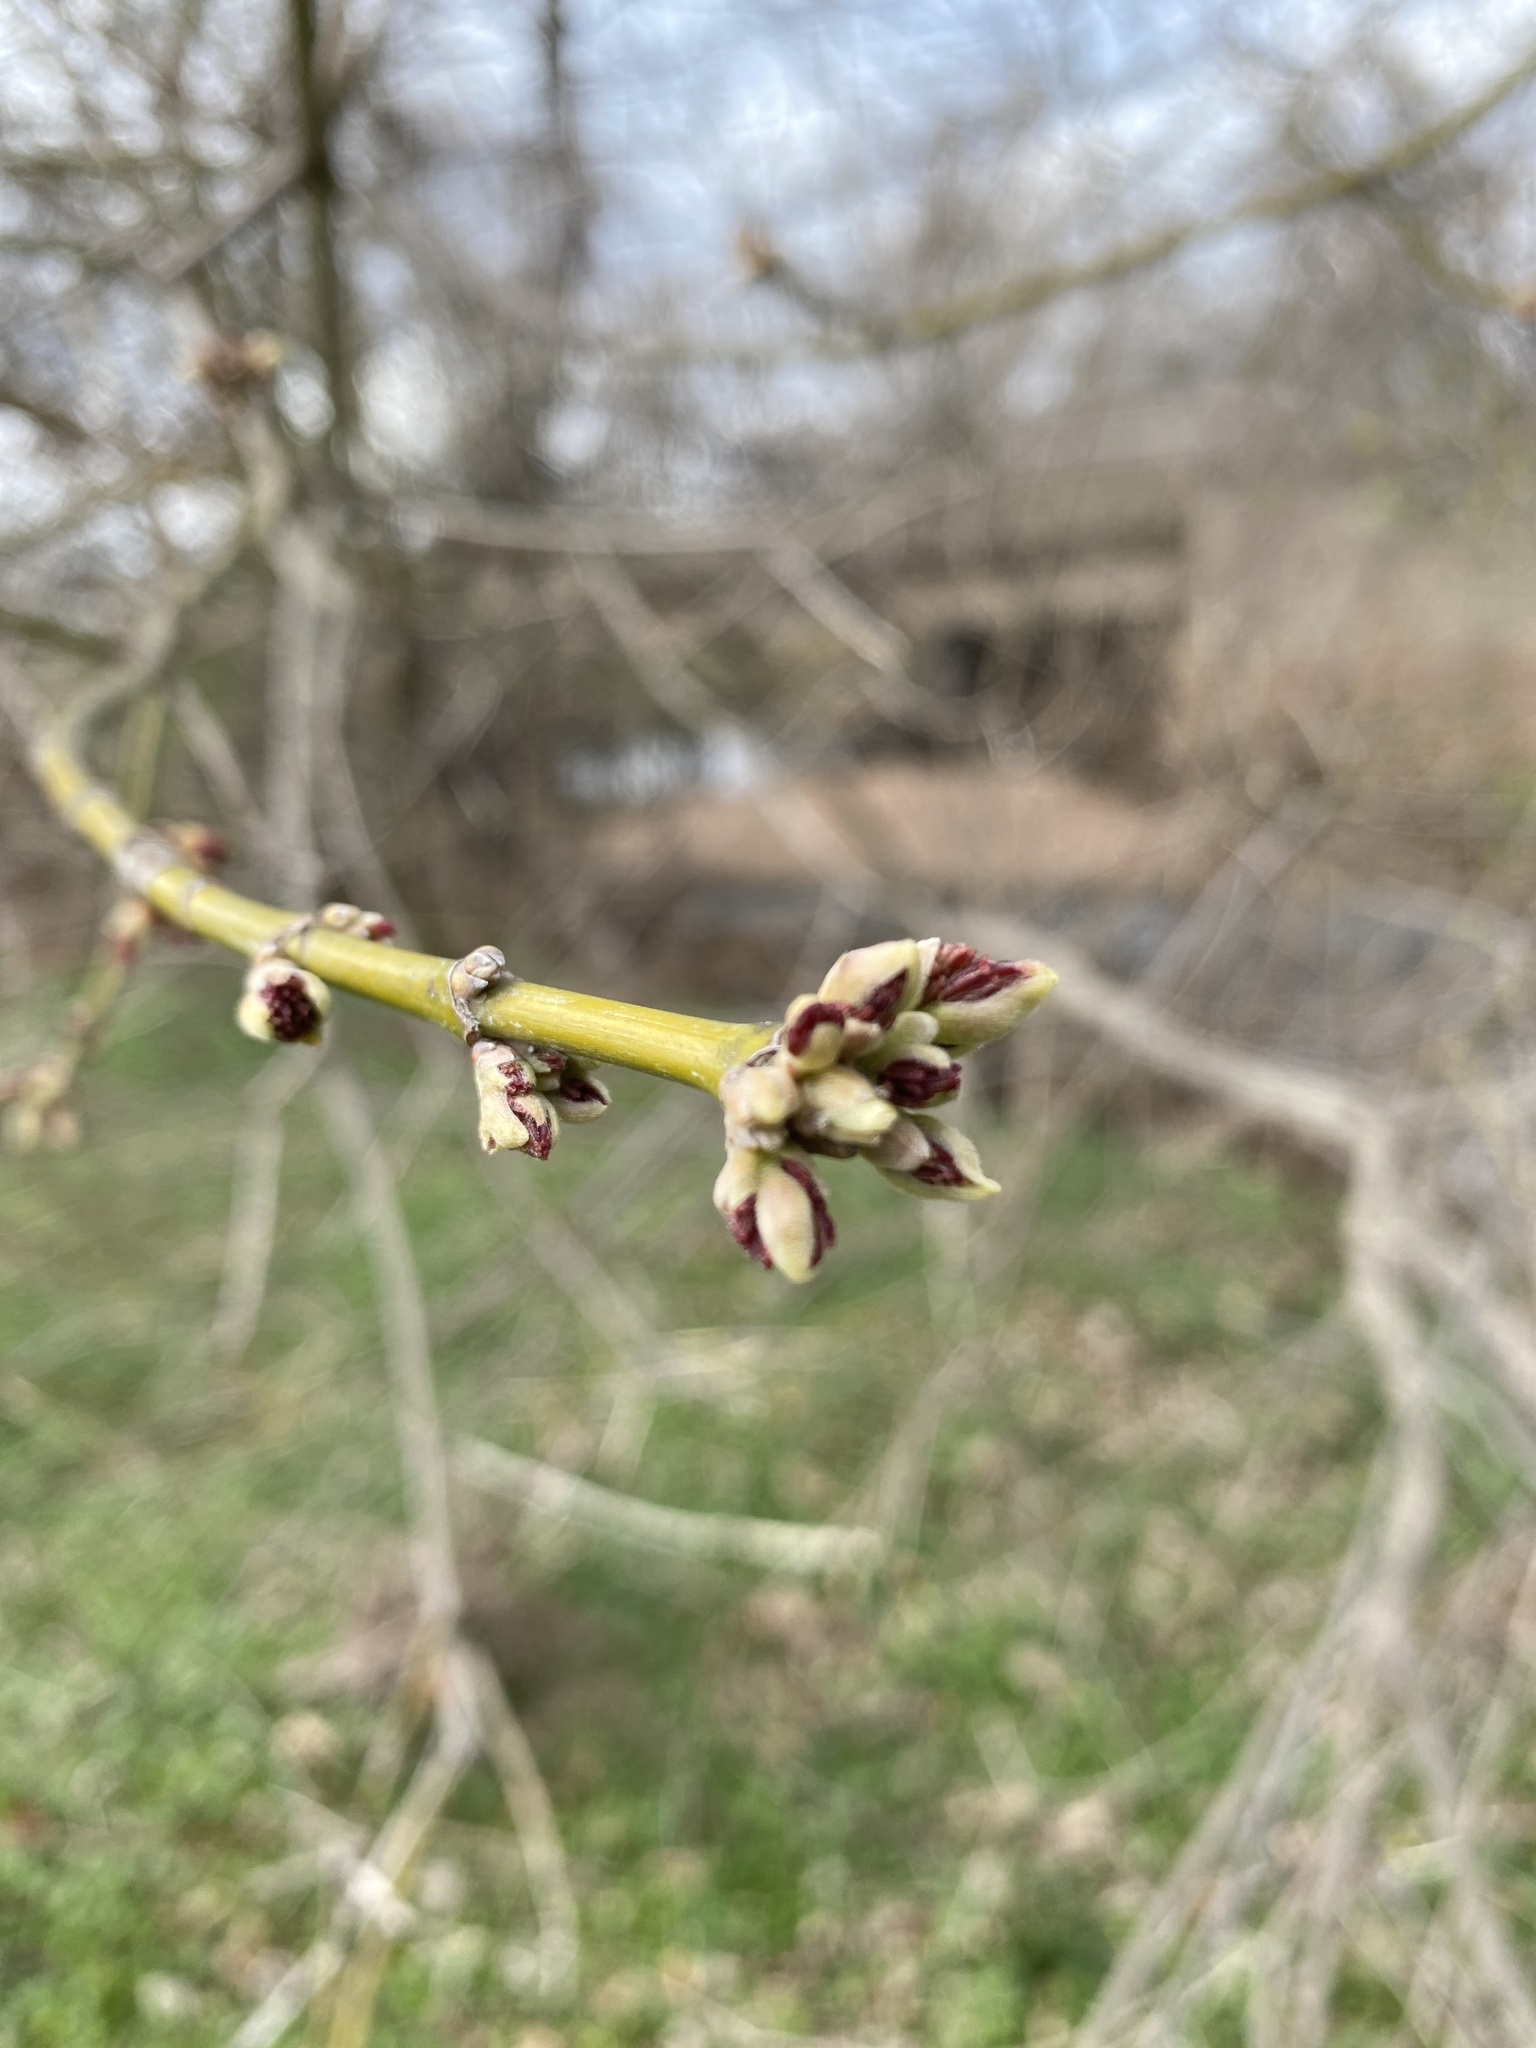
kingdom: Plantae
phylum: Tracheophyta
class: Magnoliopsida
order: Sapindales
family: Sapindaceae
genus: Acer
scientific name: Acer negundo
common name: Ashleaf maple
